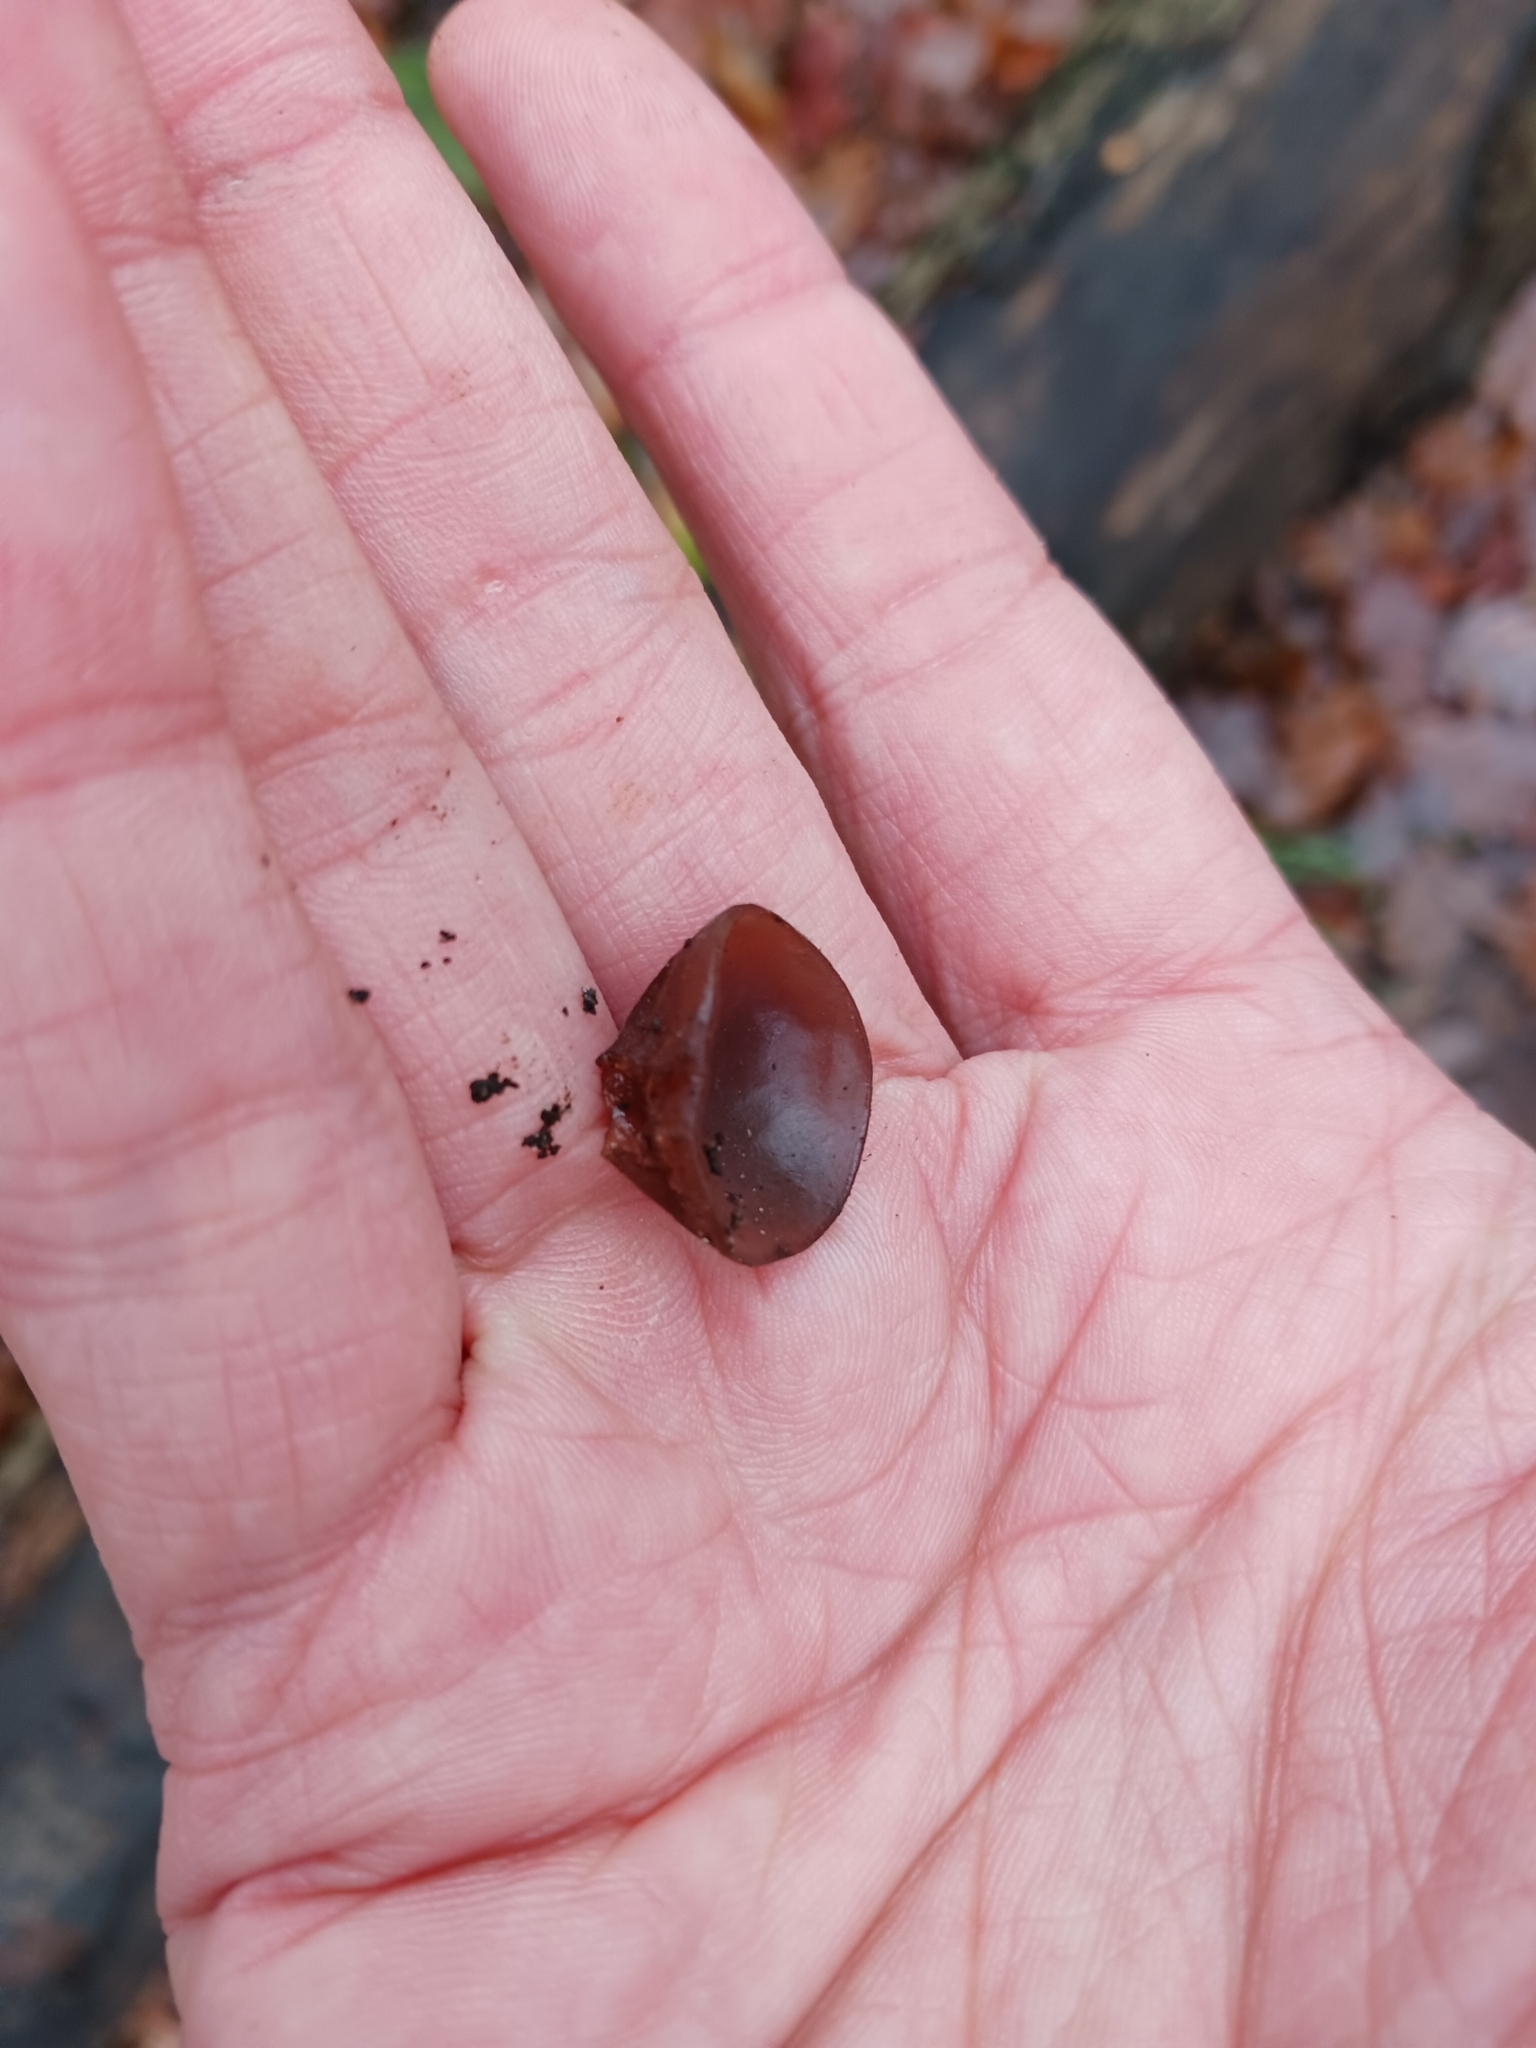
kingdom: Fungi
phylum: Basidiomycota
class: Agaricomycetes
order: Auriculariales
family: Auriculariaceae
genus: Auricularia
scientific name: Auricularia auricula-judae
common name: Jelly ear
